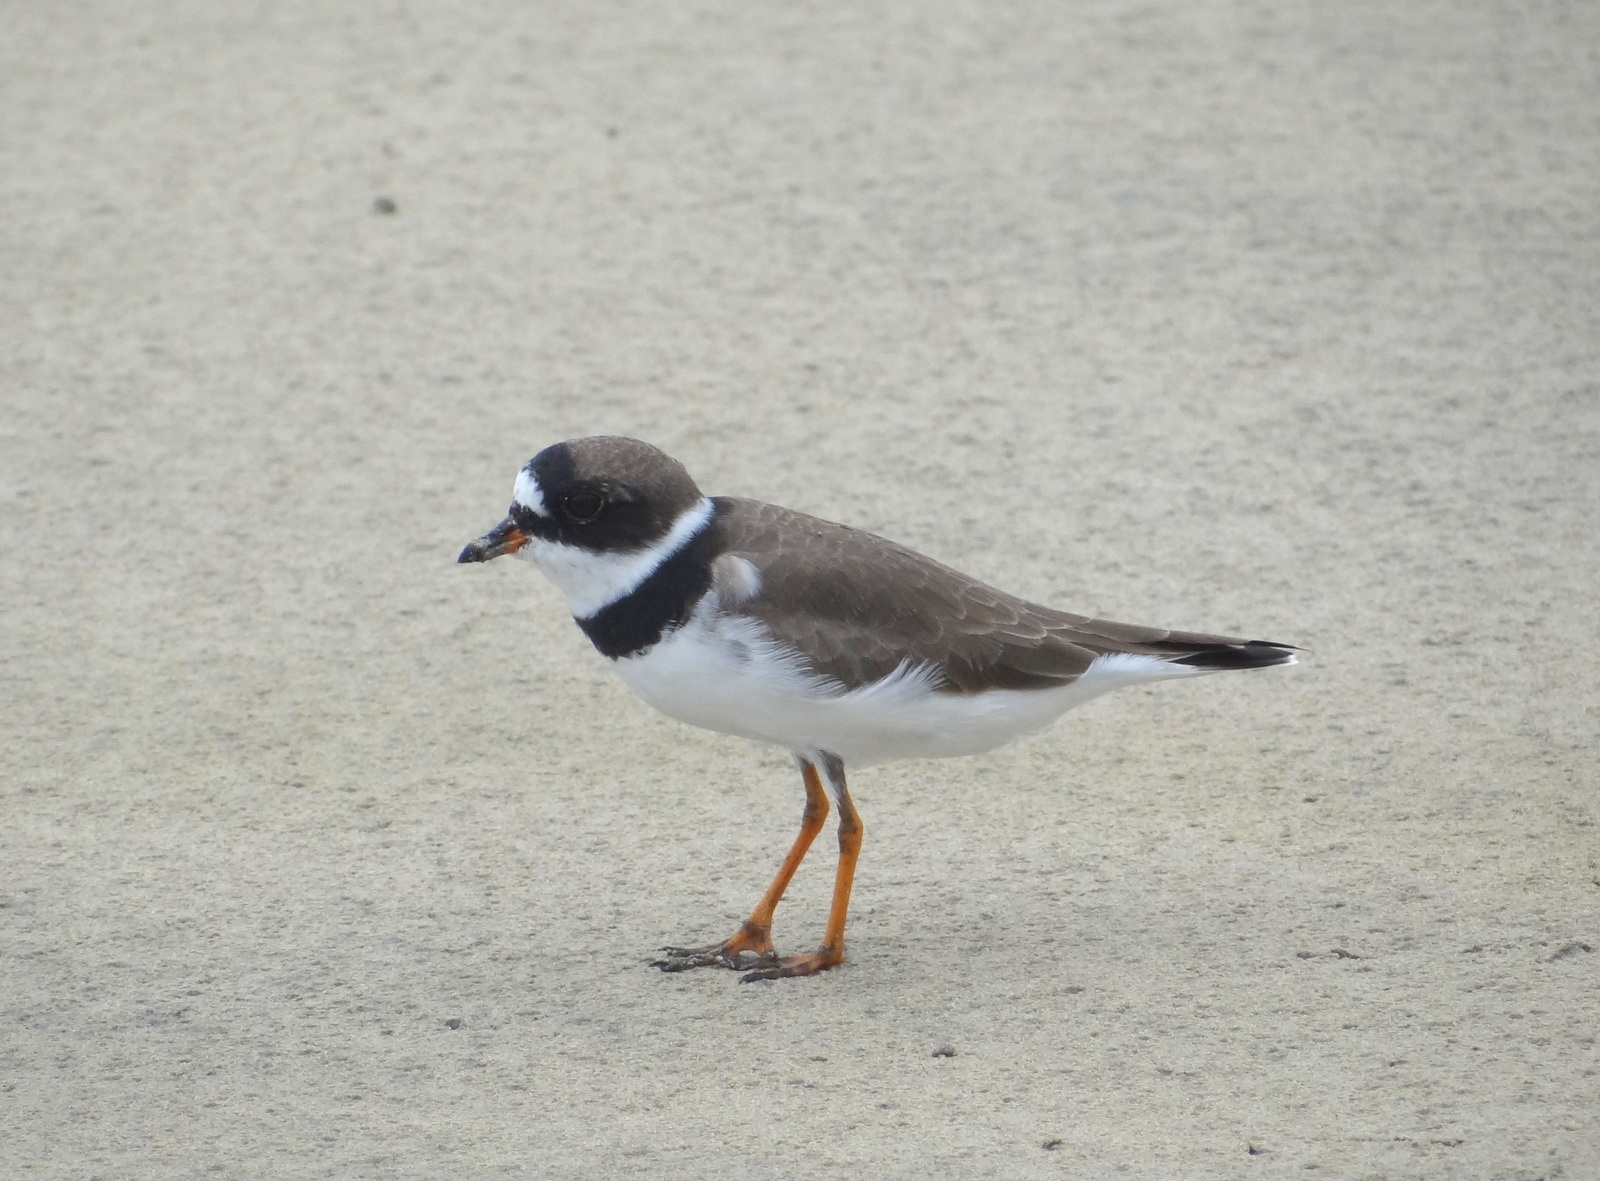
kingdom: Animalia
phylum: Chordata
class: Aves
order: Charadriiformes
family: Charadriidae
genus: Charadrius
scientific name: Charadrius semipalmatus
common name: Semipalmated plover
